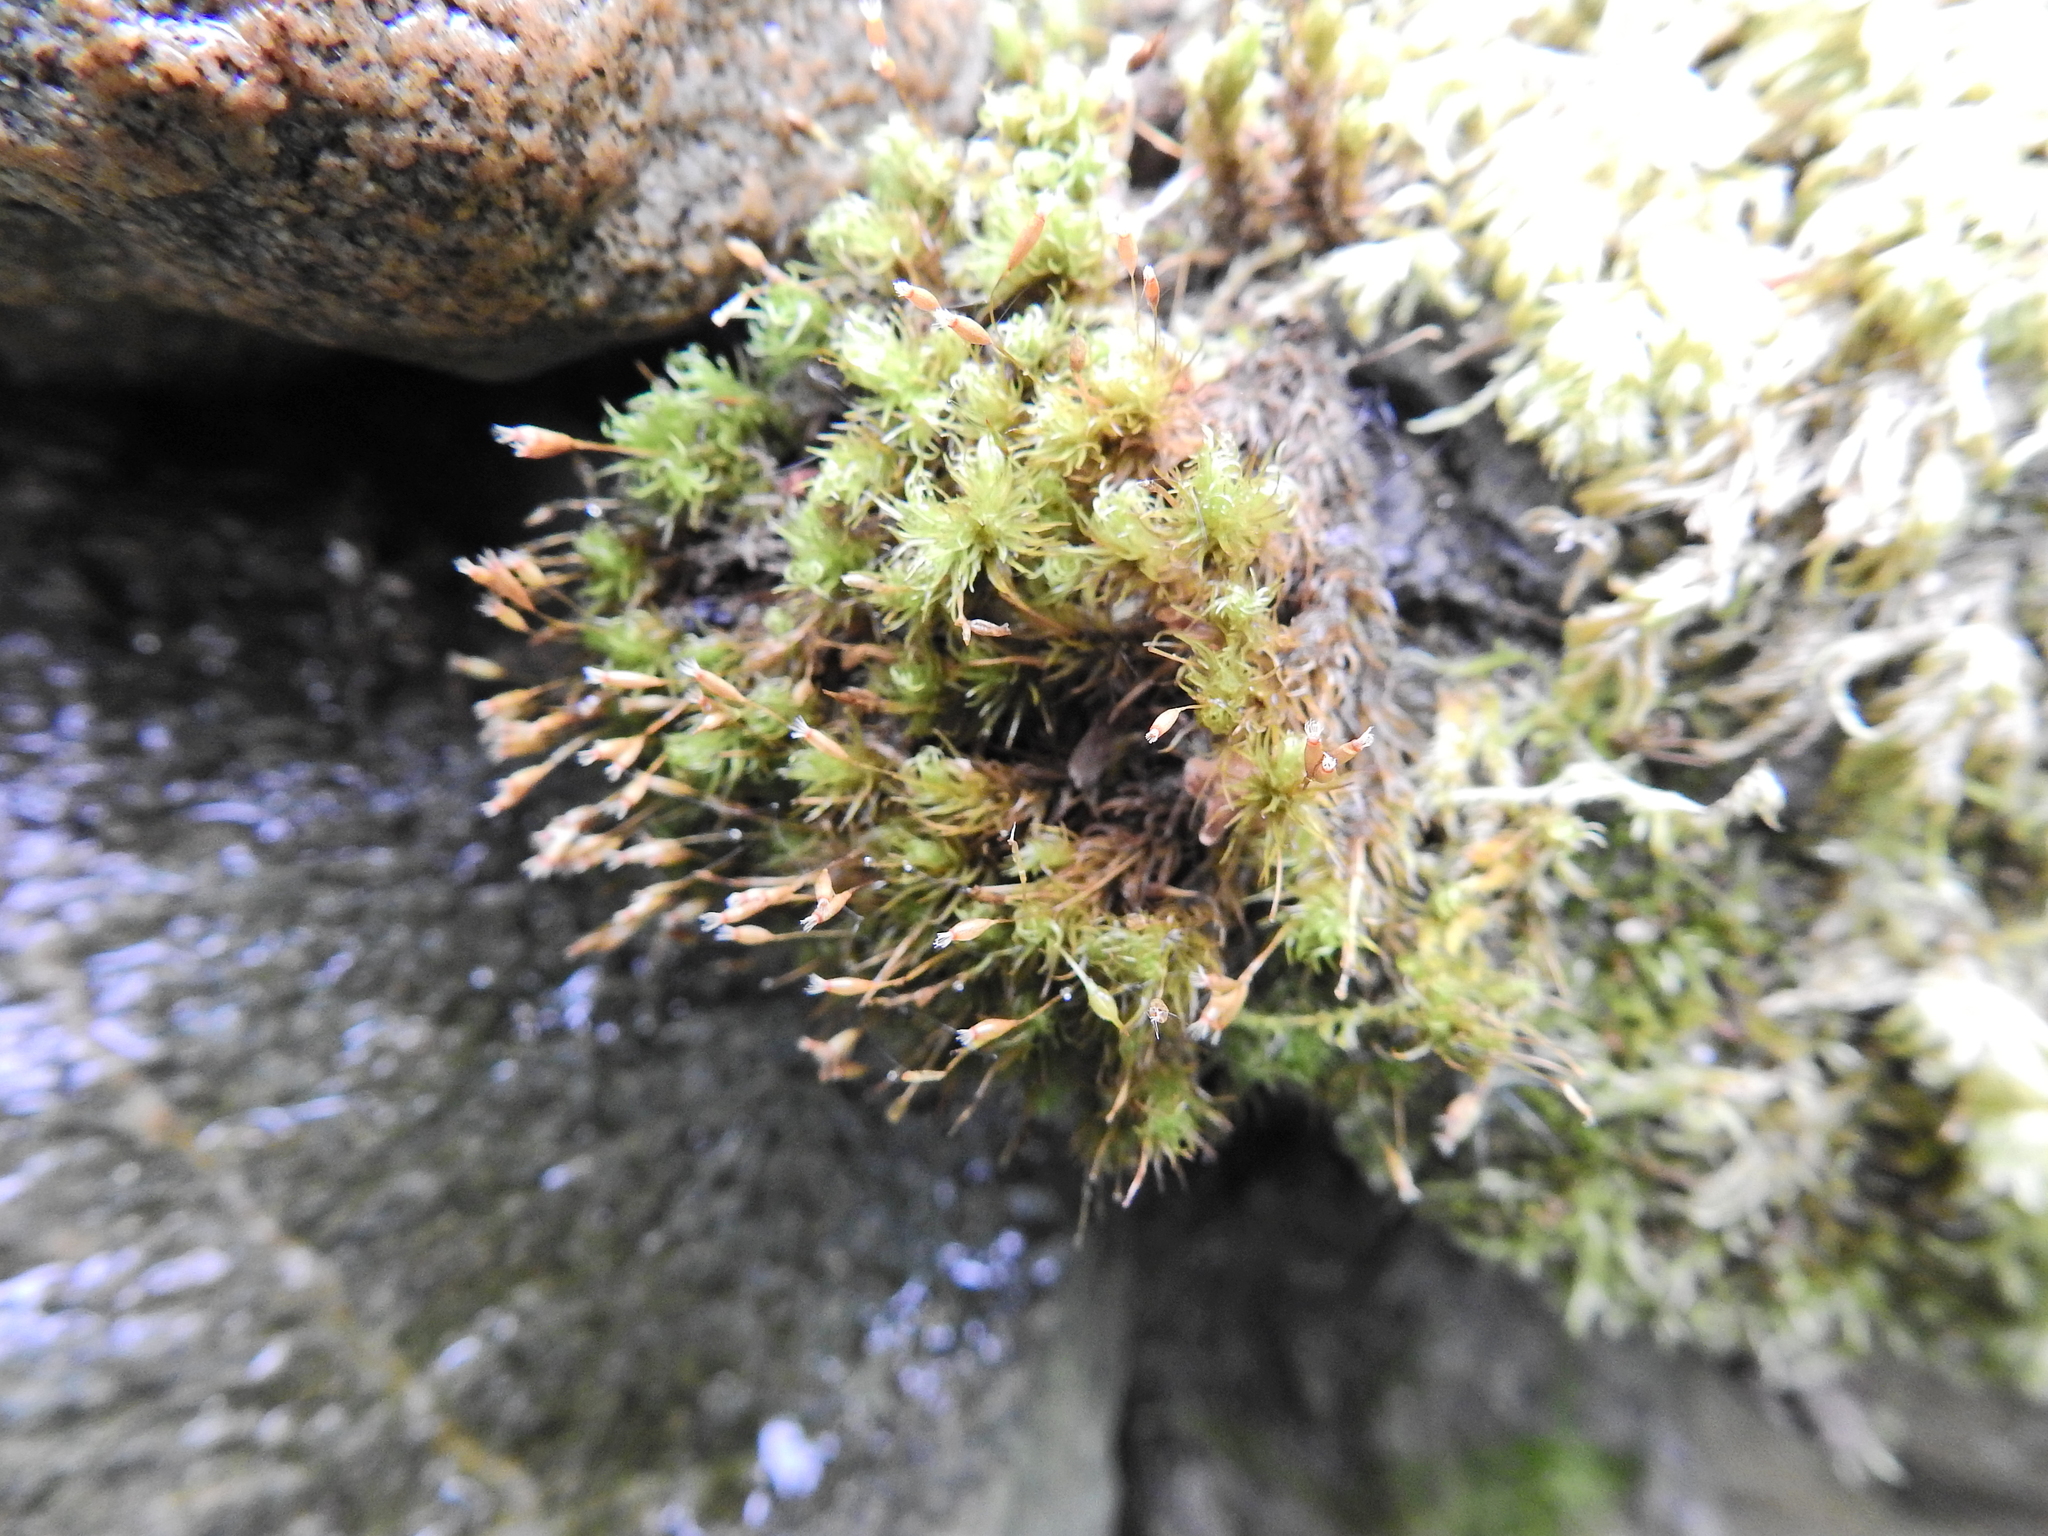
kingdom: Plantae
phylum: Bryophyta
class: Bryopsida
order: Grimmiales
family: Ptychomitriaceae
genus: Ptychomitrium
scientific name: Ptychomitrium polyphyllum
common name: Greater pincushion
